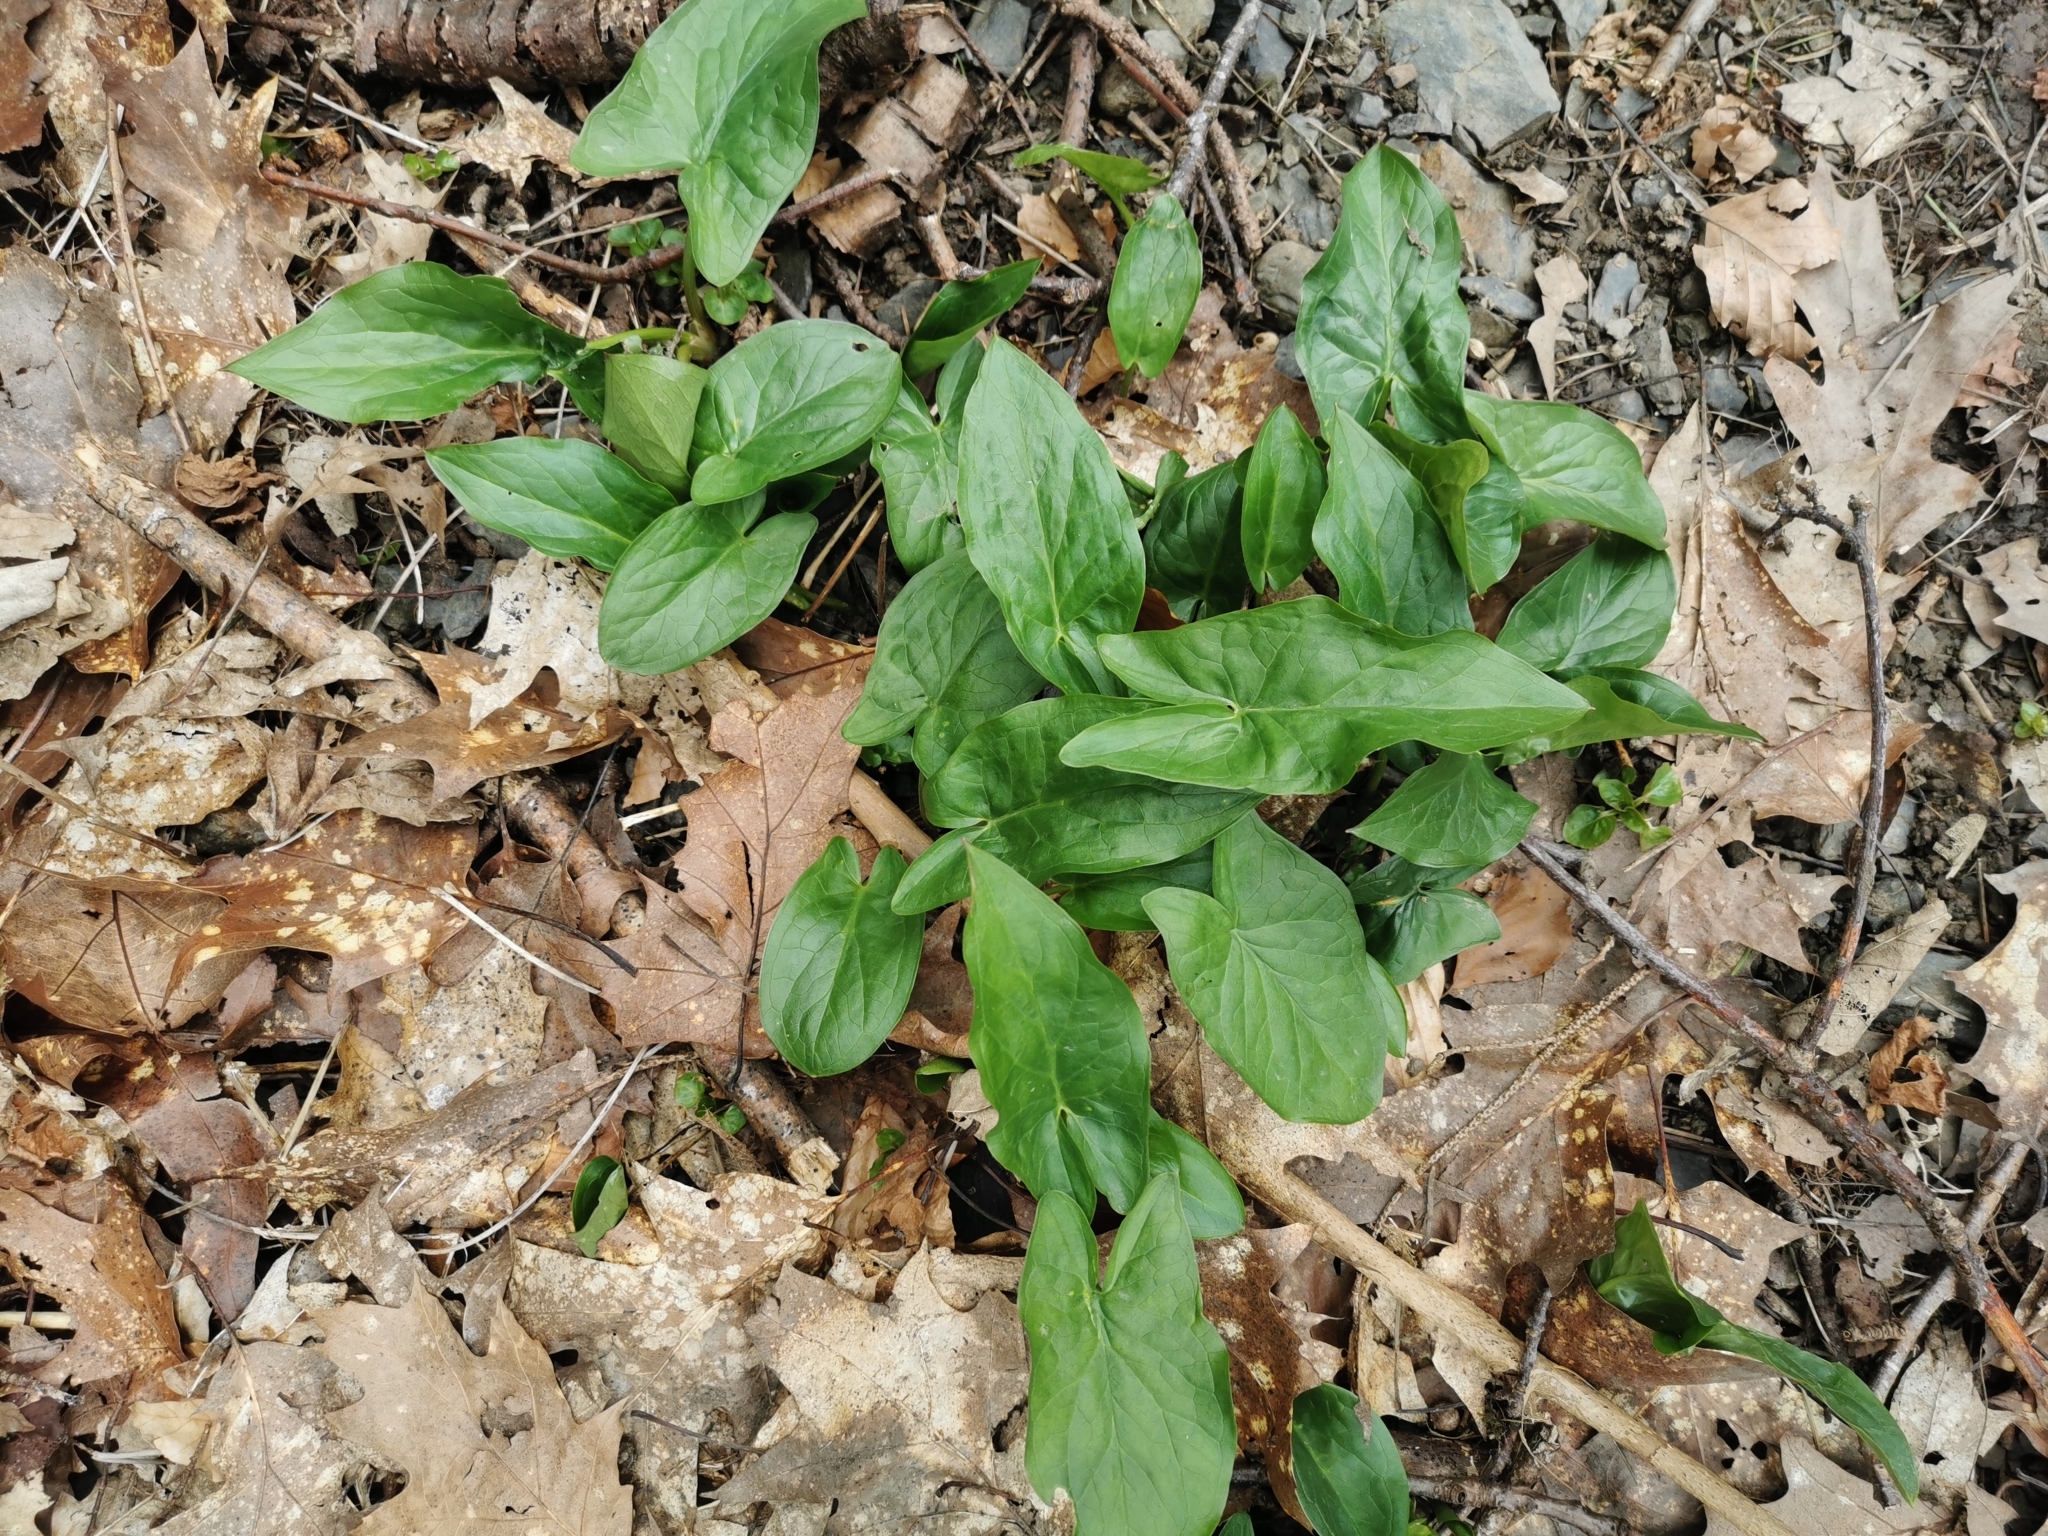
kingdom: Plantae
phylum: Tracheophyta
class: Liliopsida
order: Alismatales
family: Araceae
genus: Arum
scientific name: Arum maculatum
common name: Lords-and-ladies
